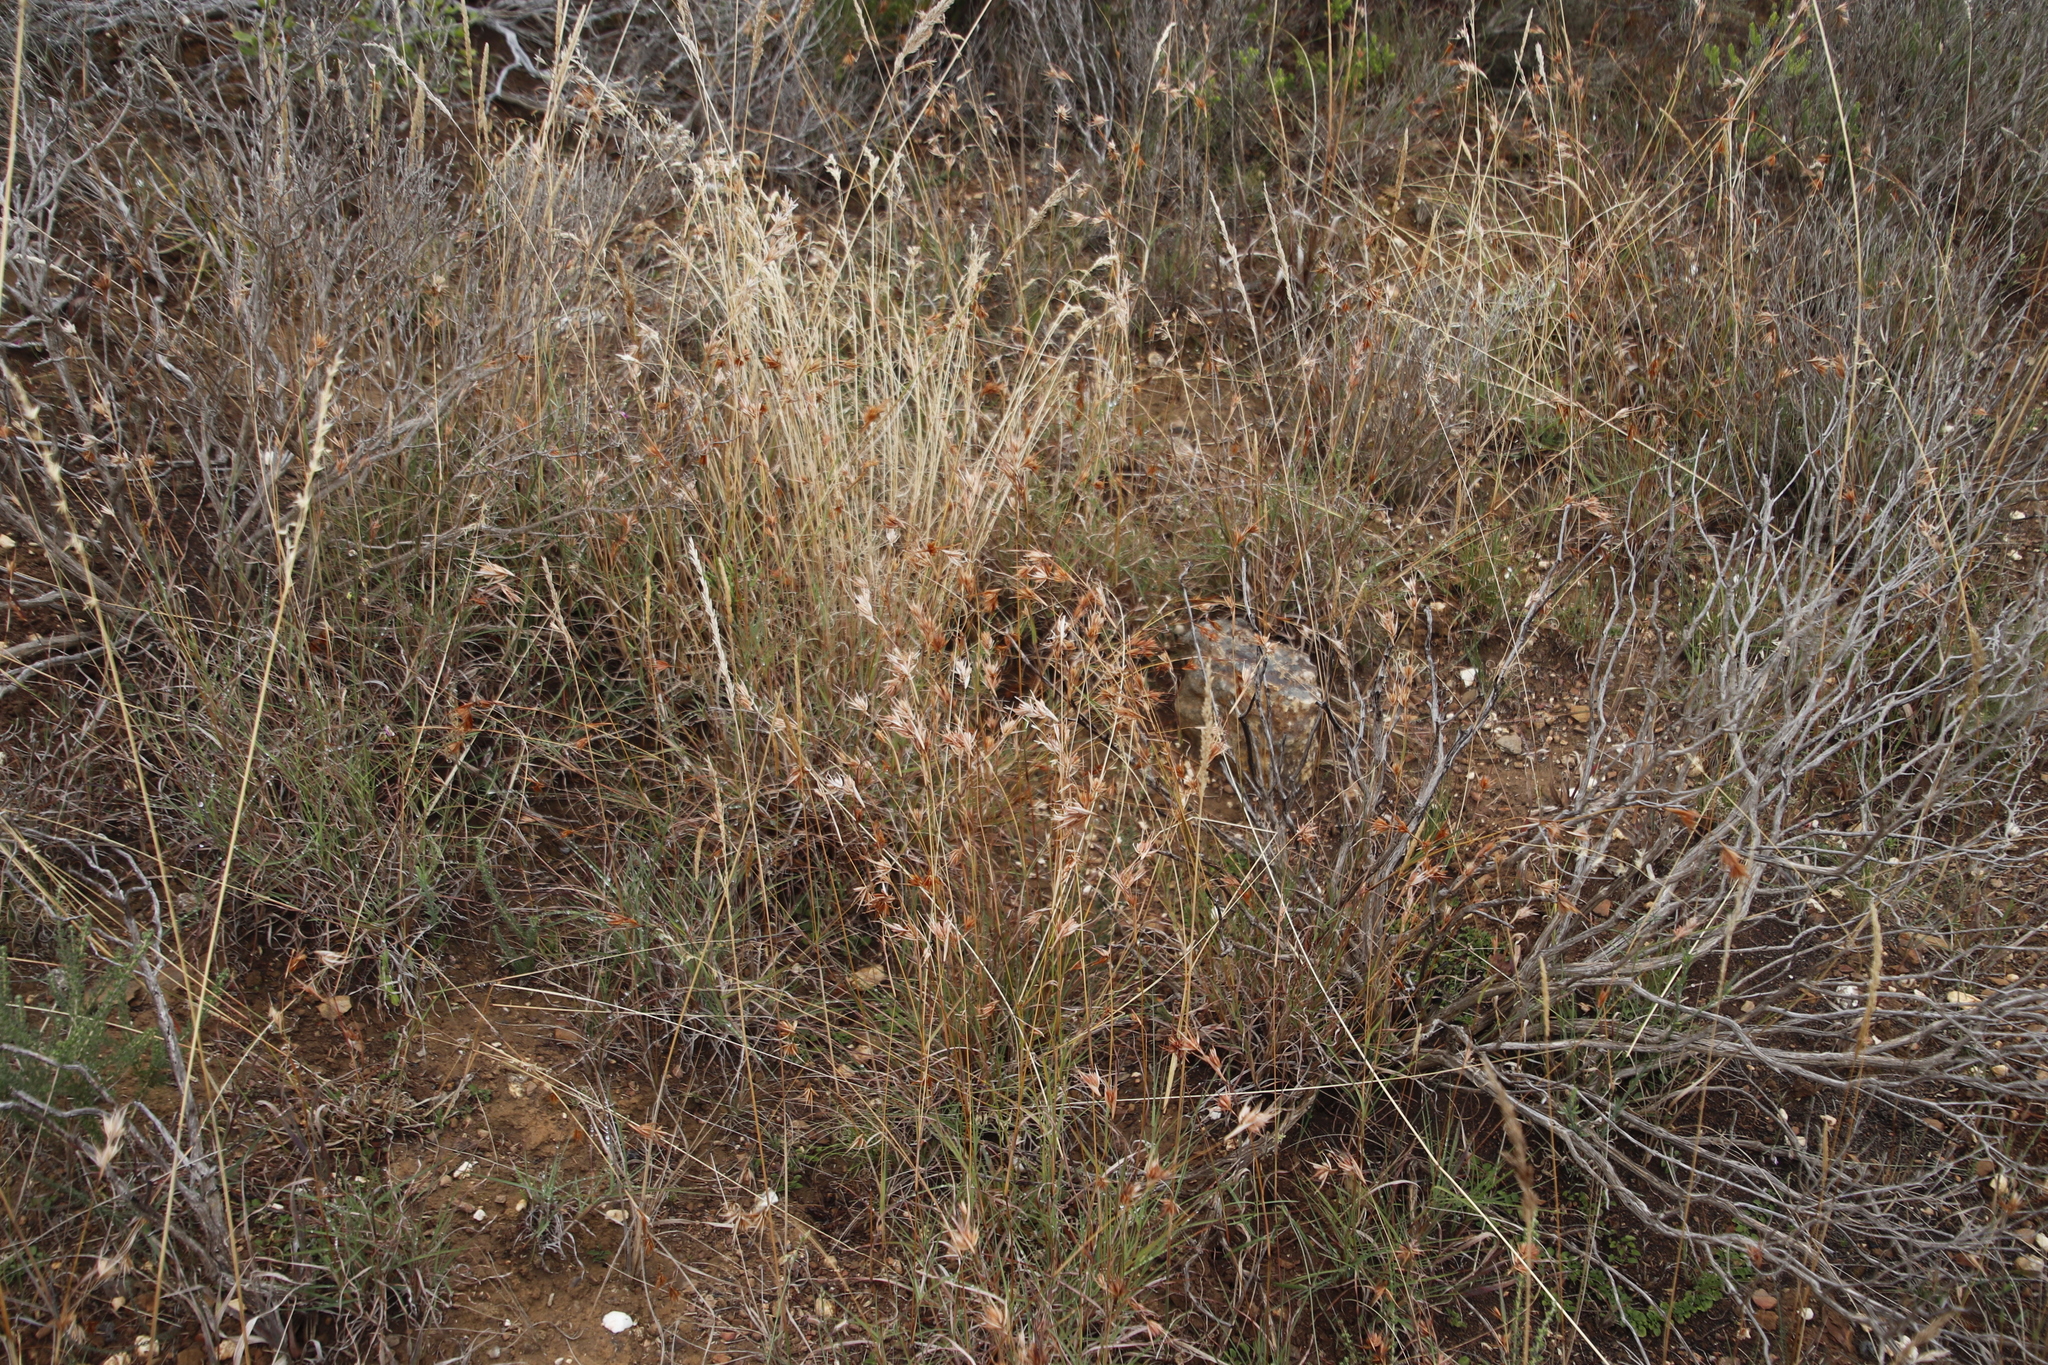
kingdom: Plantae
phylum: Tracheophyta
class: Liliopsida
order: Poales
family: Poaceae
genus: Themeda
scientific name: Themeda triandra
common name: Kangaroo grass
